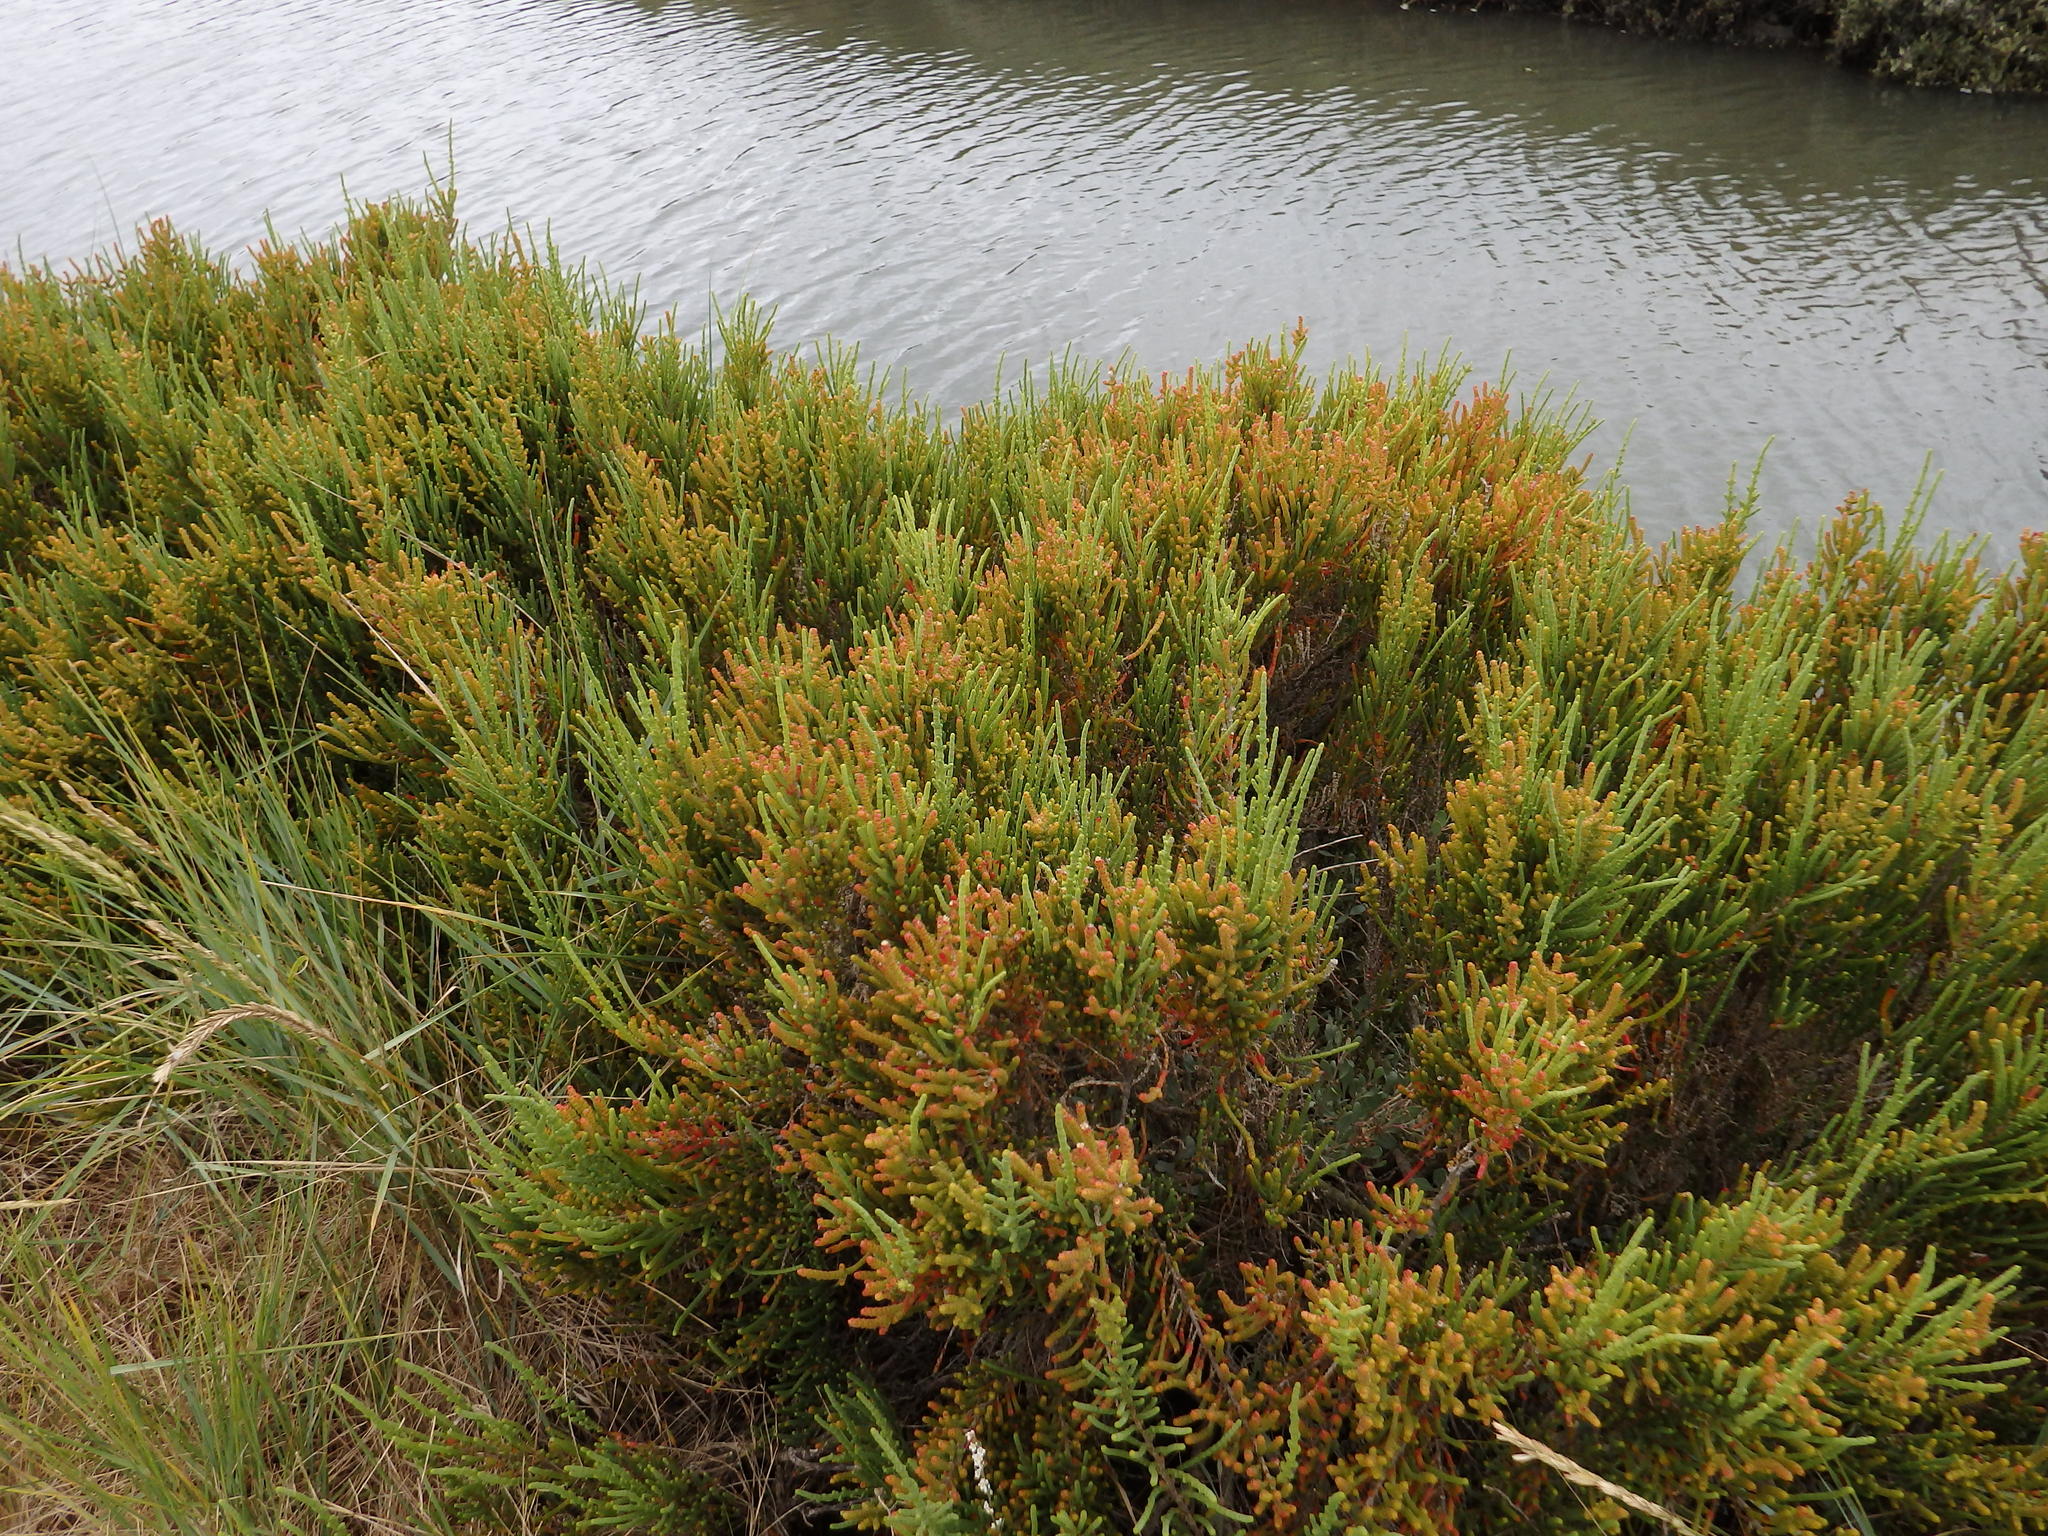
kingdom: Plantae
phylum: Tracheophyta
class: Magnoliopsida
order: Caryophyllales
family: Amaranthaceae
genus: Arthrocaulon
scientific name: Arthrocaulon macrostachyum
